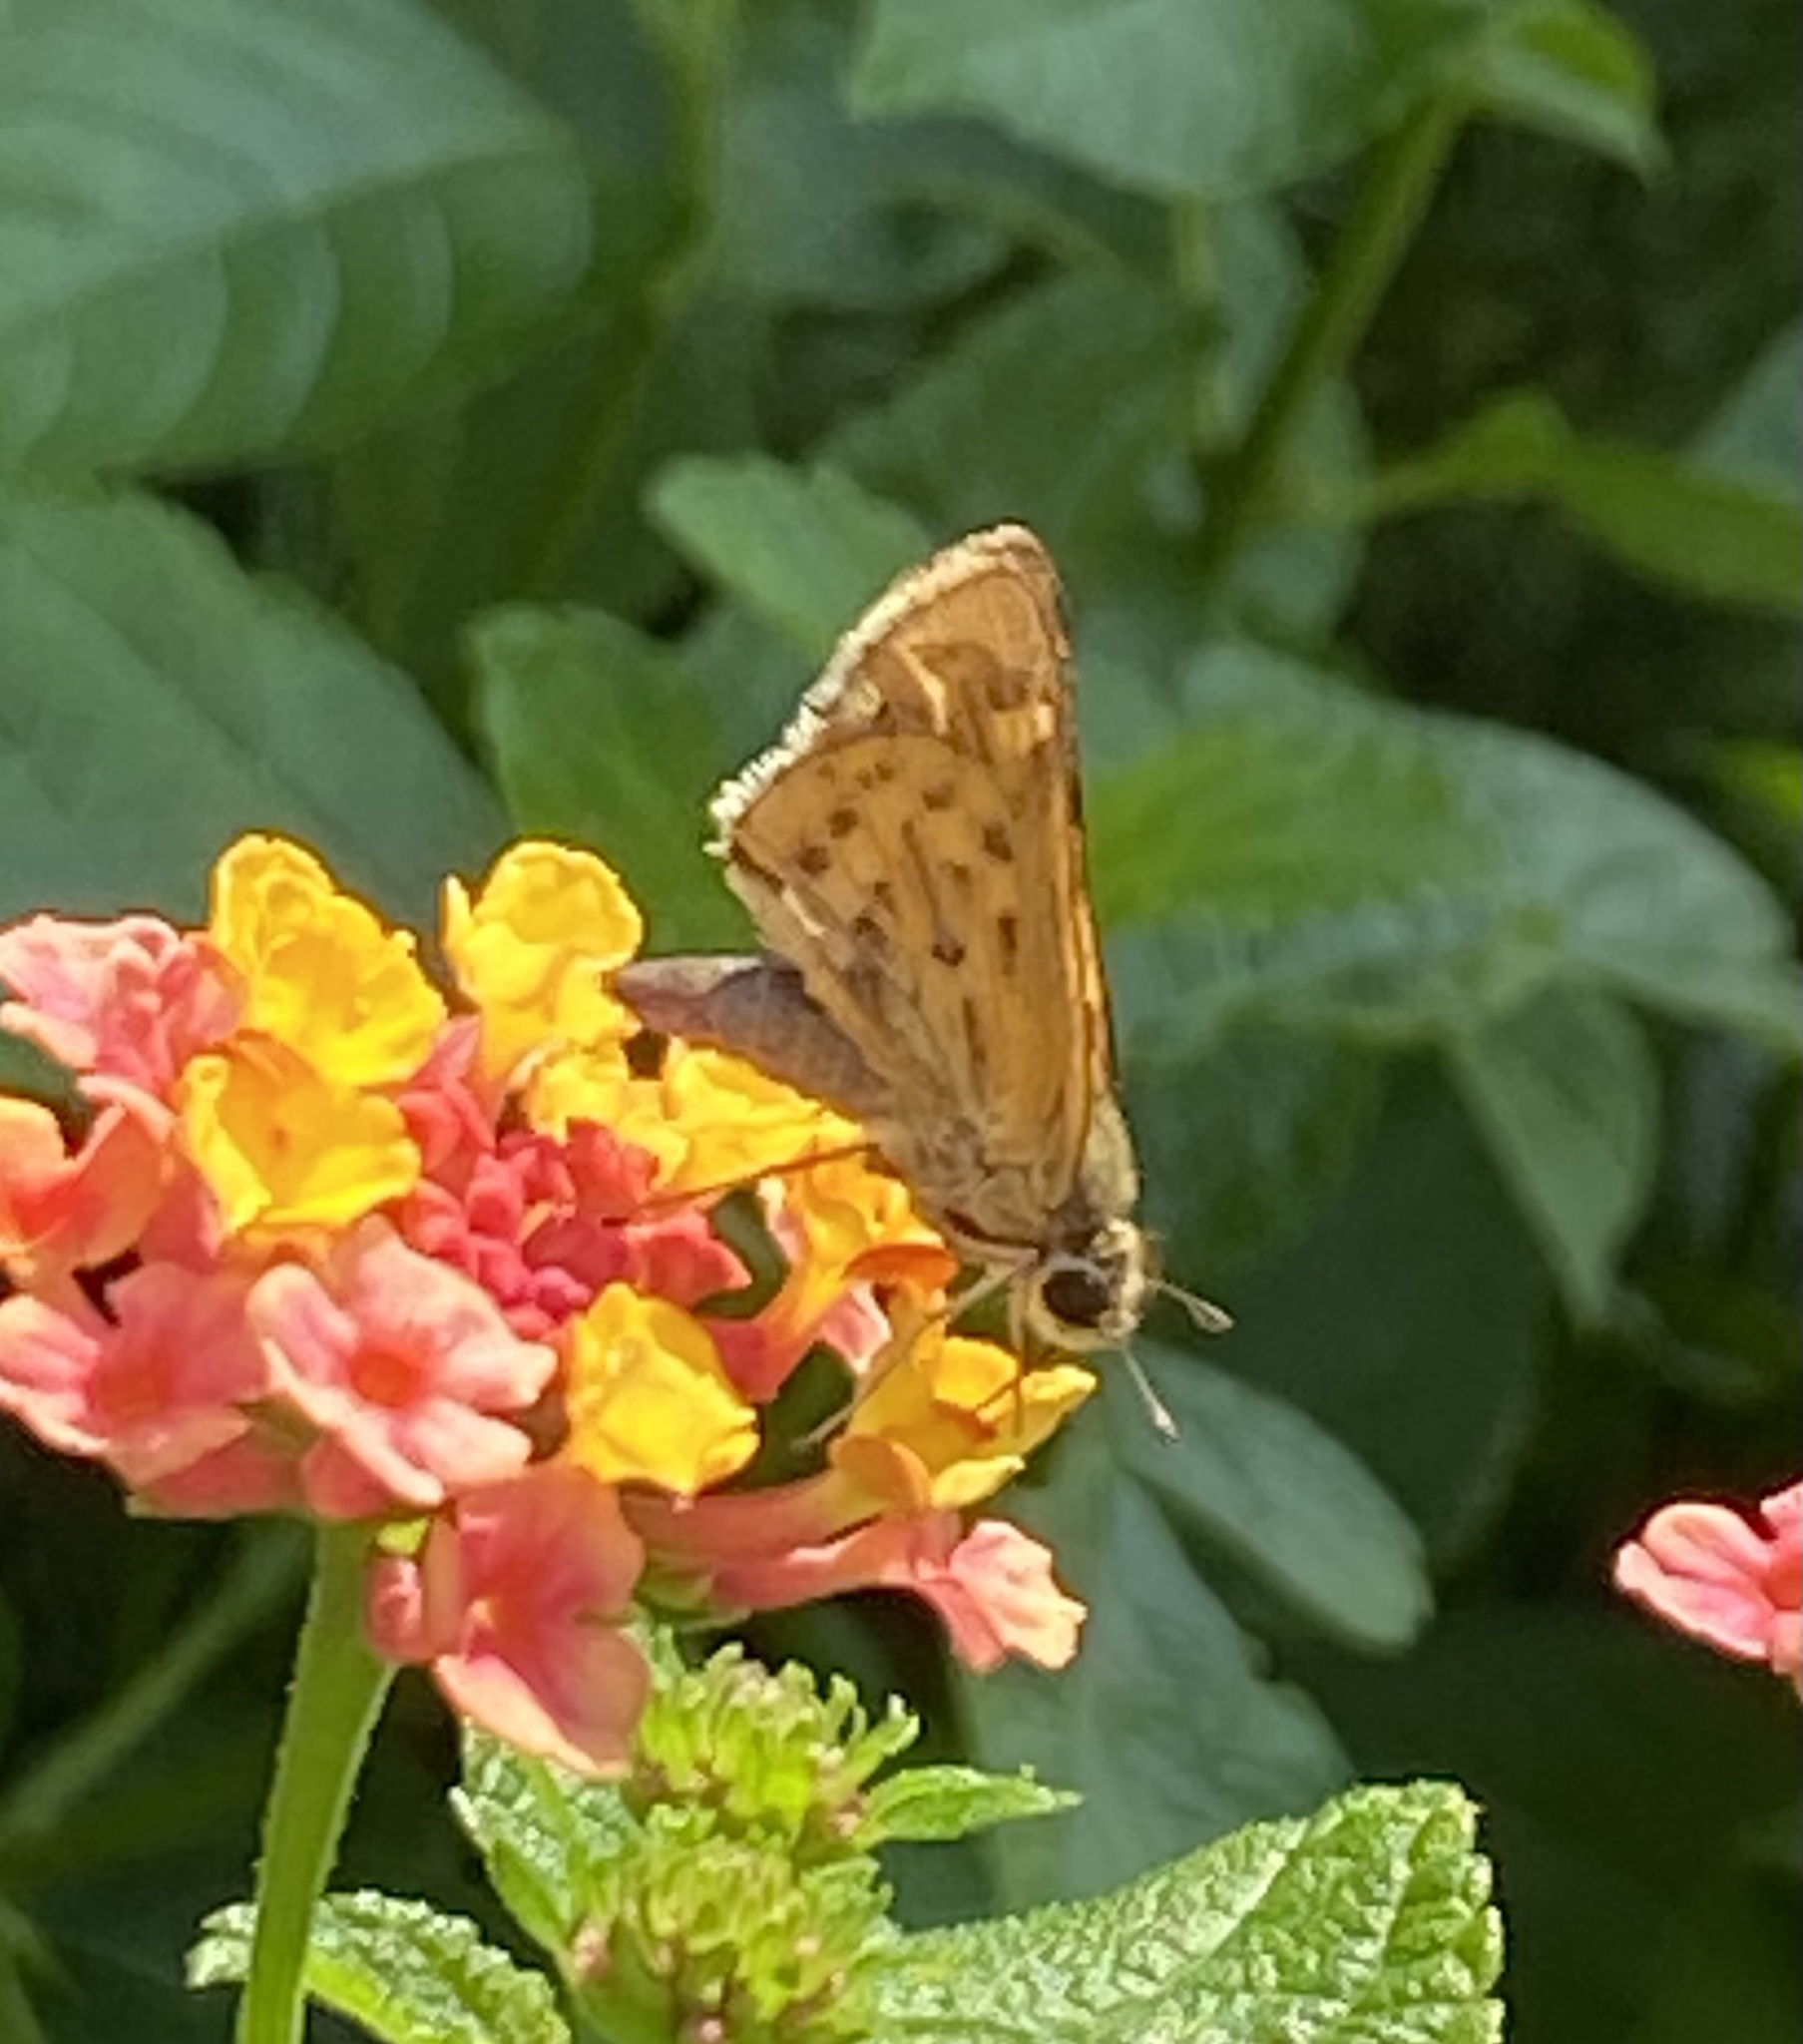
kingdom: Animalia
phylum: Arthropoda
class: Insecta
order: Lepidoptera
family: Hesperiidae
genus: Hylephila
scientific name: Hylephila phyleus
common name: Fiery skipper
